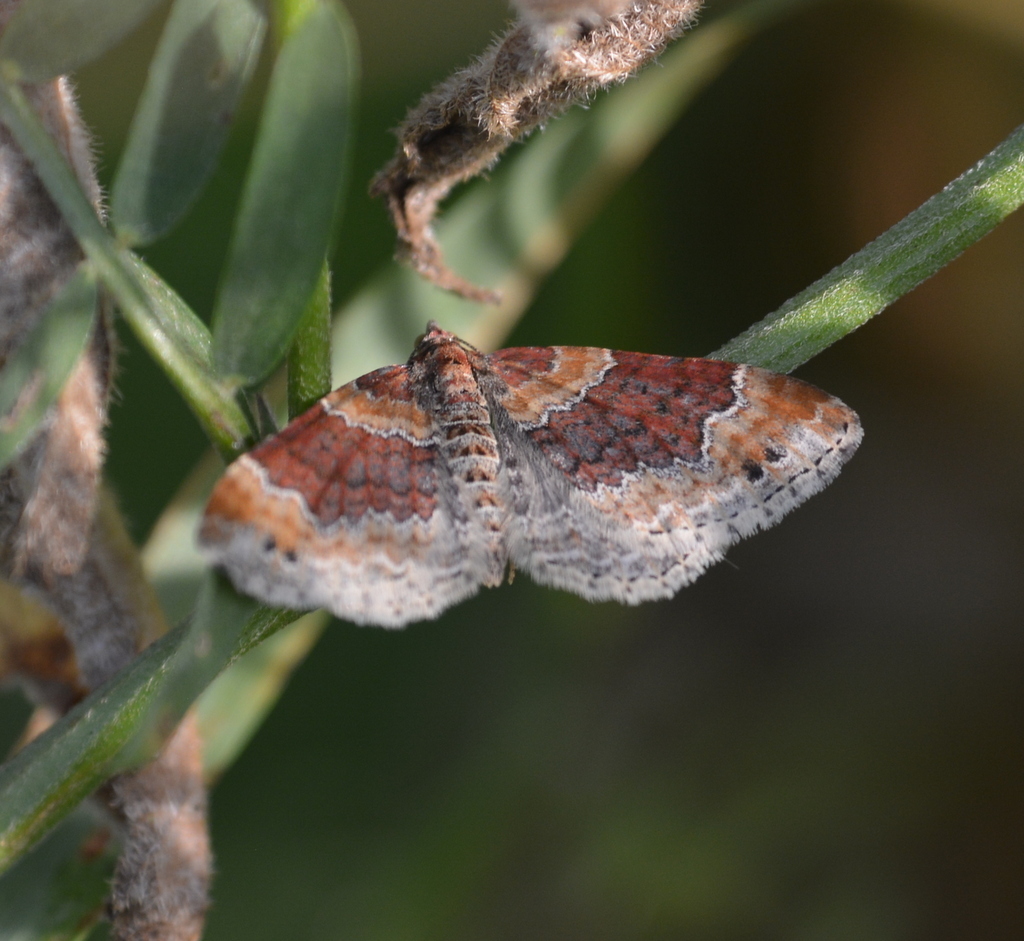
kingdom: Animalia
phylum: Arthropoda
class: Insecta
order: Lepidoptera
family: Geometridae
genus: Xanthorhoe
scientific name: Xanthorhoe spadicearia
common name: Red twin-spot carpet
